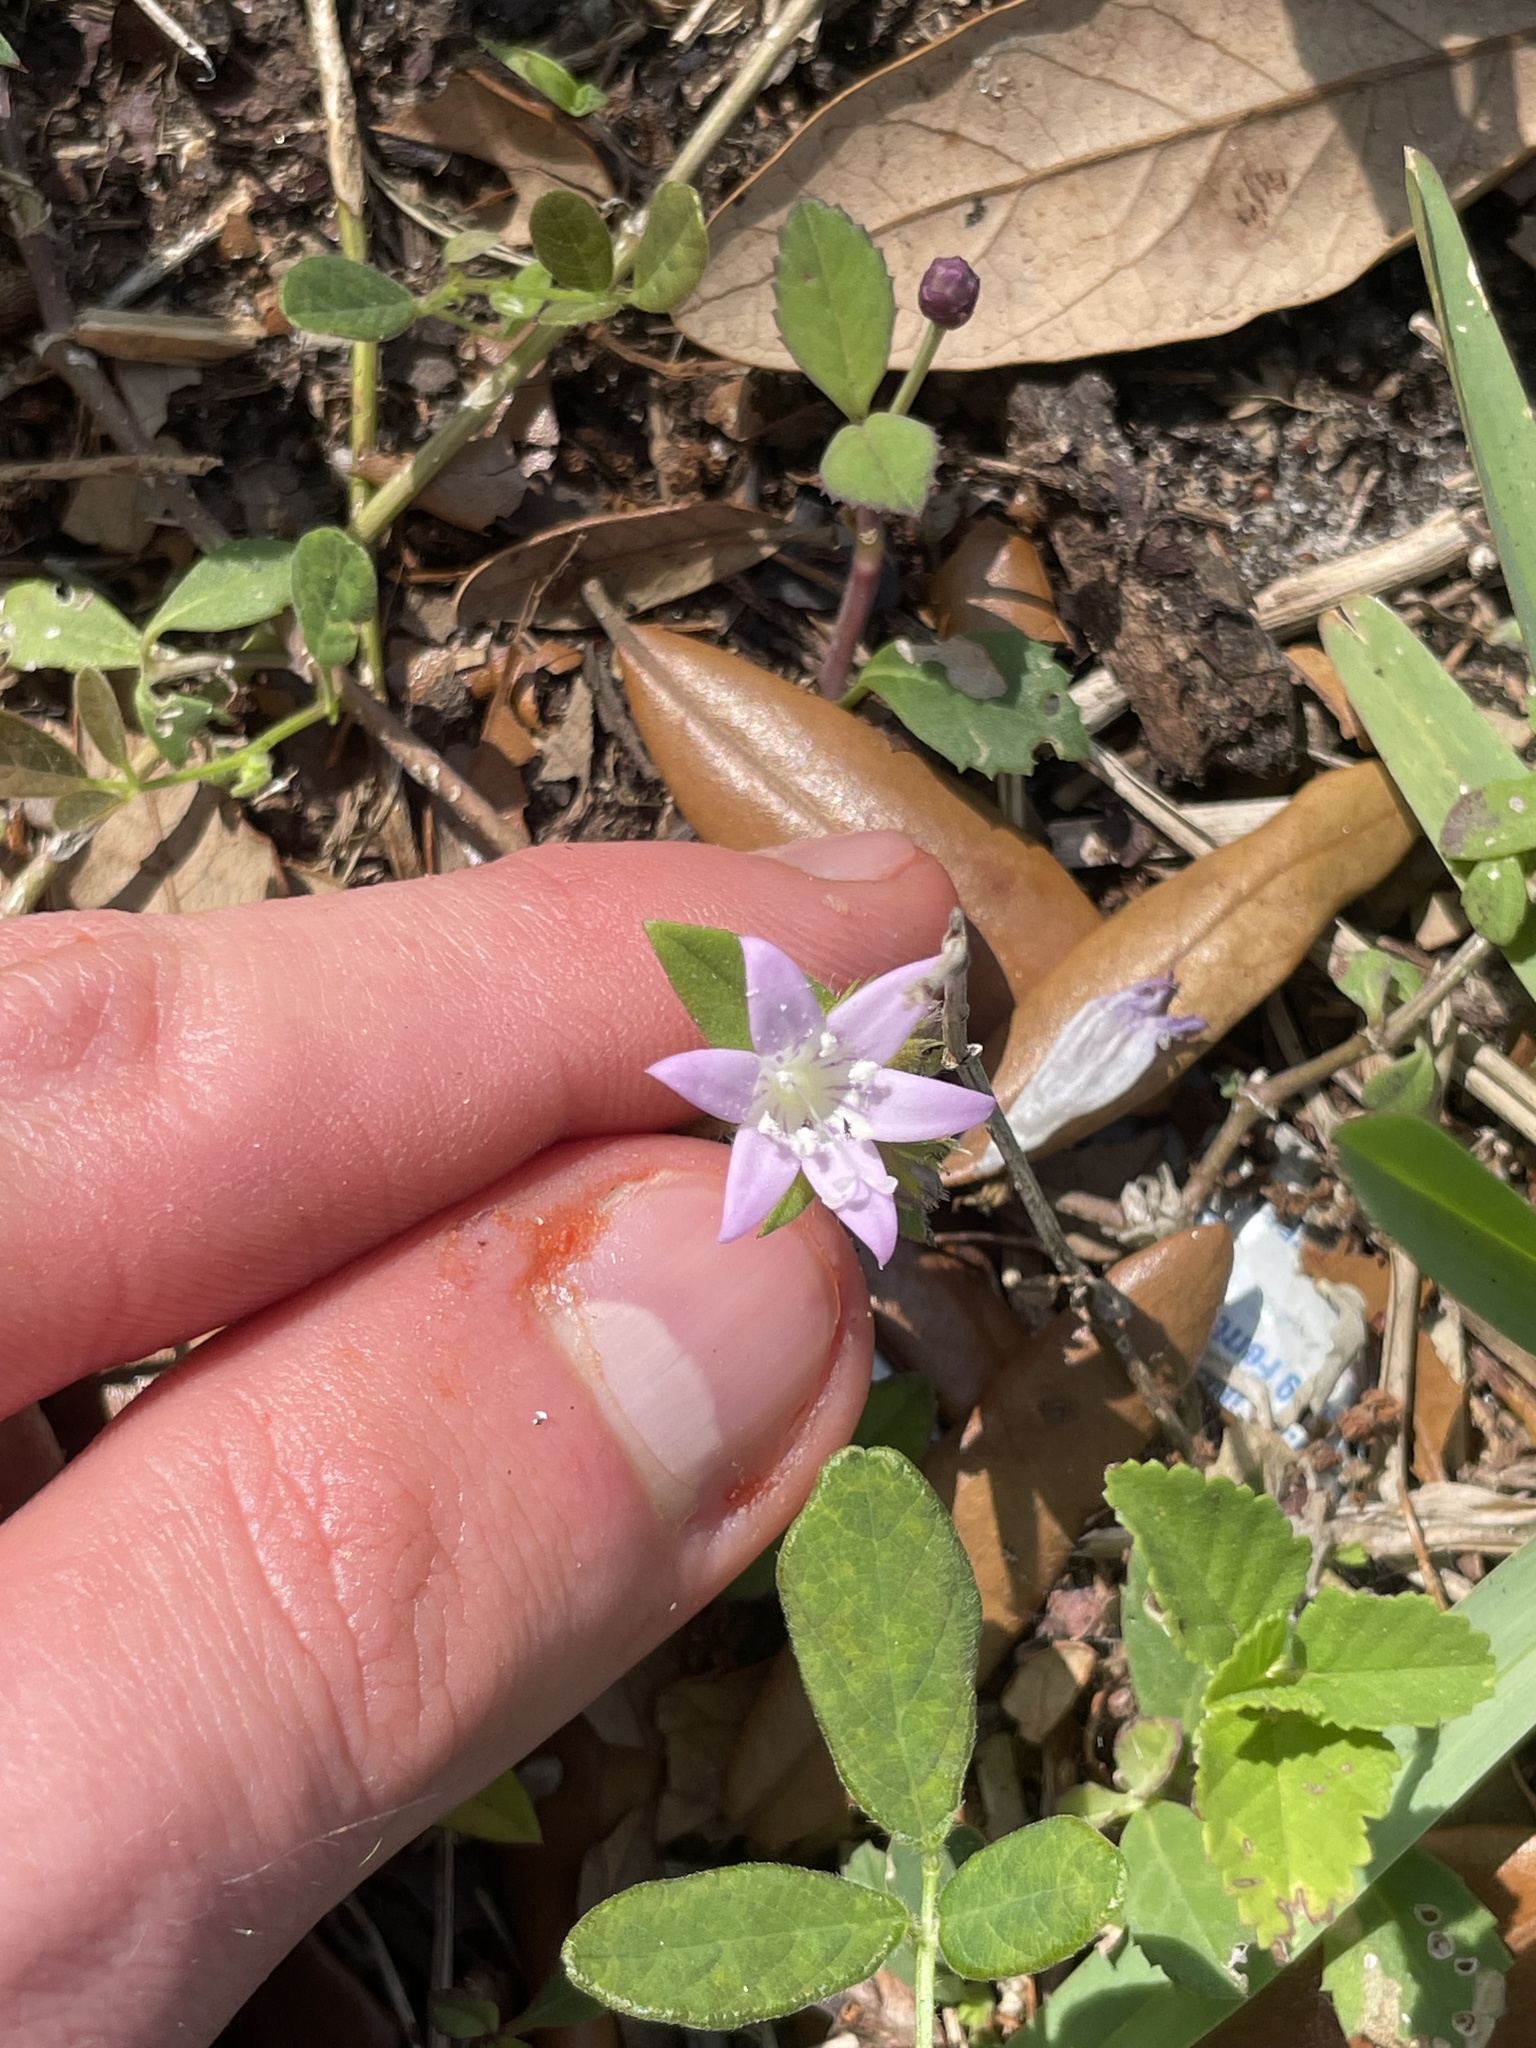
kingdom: Plantae
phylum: Tracheophyta
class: Magnoliopsida
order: Gentianales
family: Rubiaceae
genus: Richardia
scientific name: Richardia grandiflora
